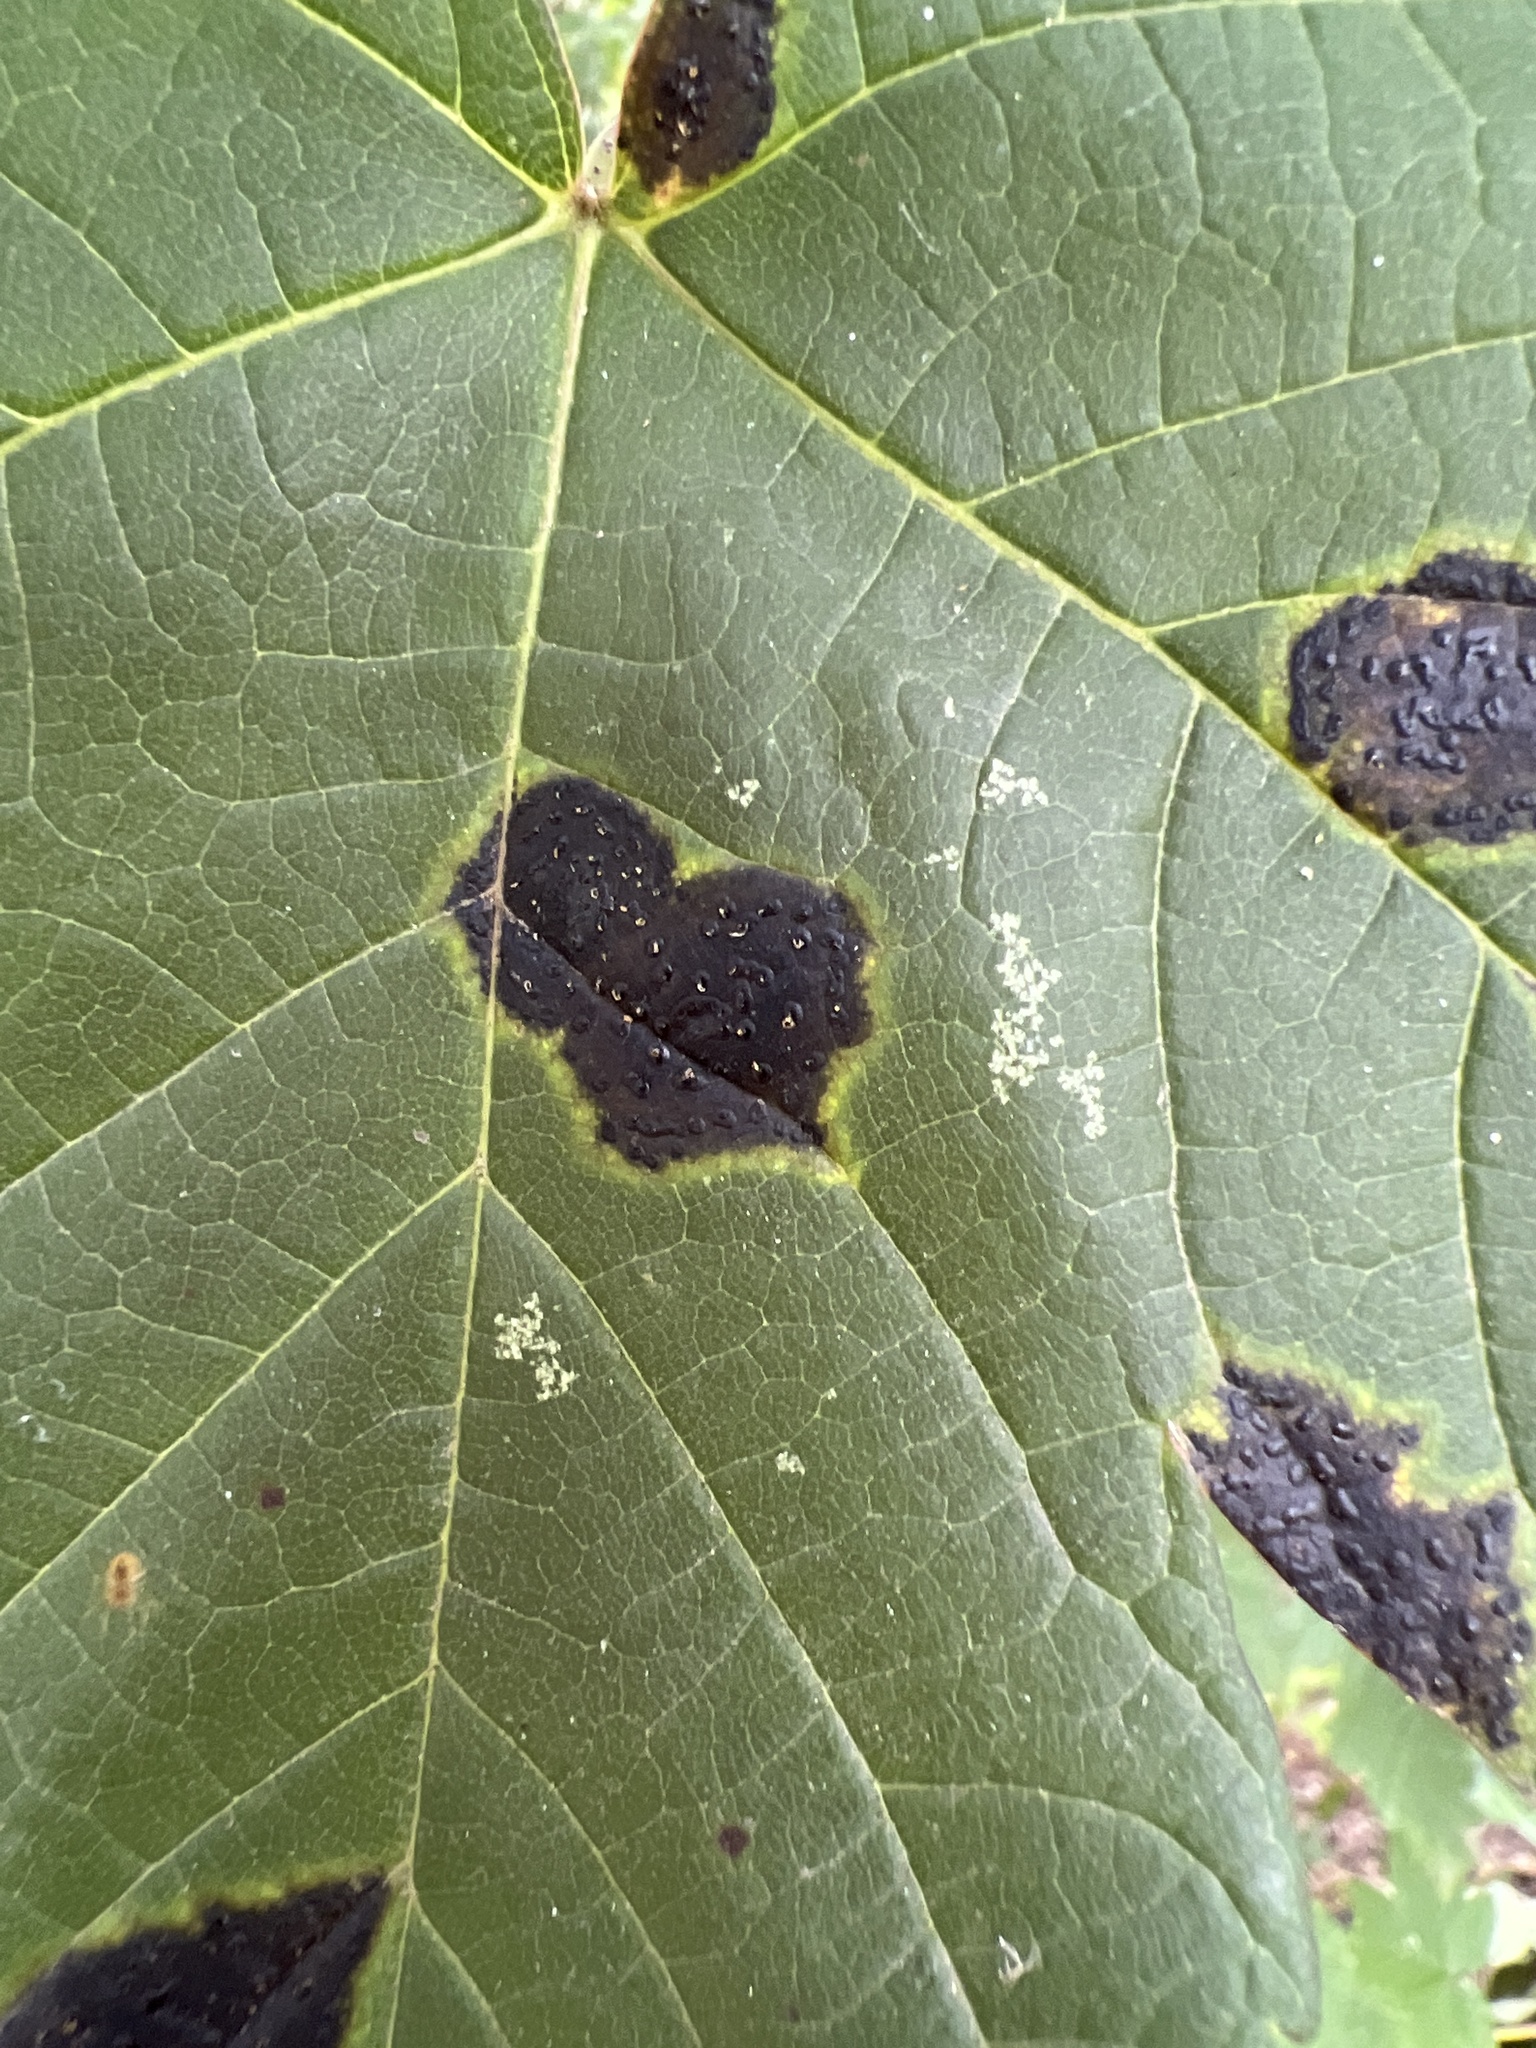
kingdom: Fungi
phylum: Ascomycota
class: Leotiomycetes
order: Rhytismatales
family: Rhytismataceae
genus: Rhytisma
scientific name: Rhytisma acerinum
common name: European tar spot
